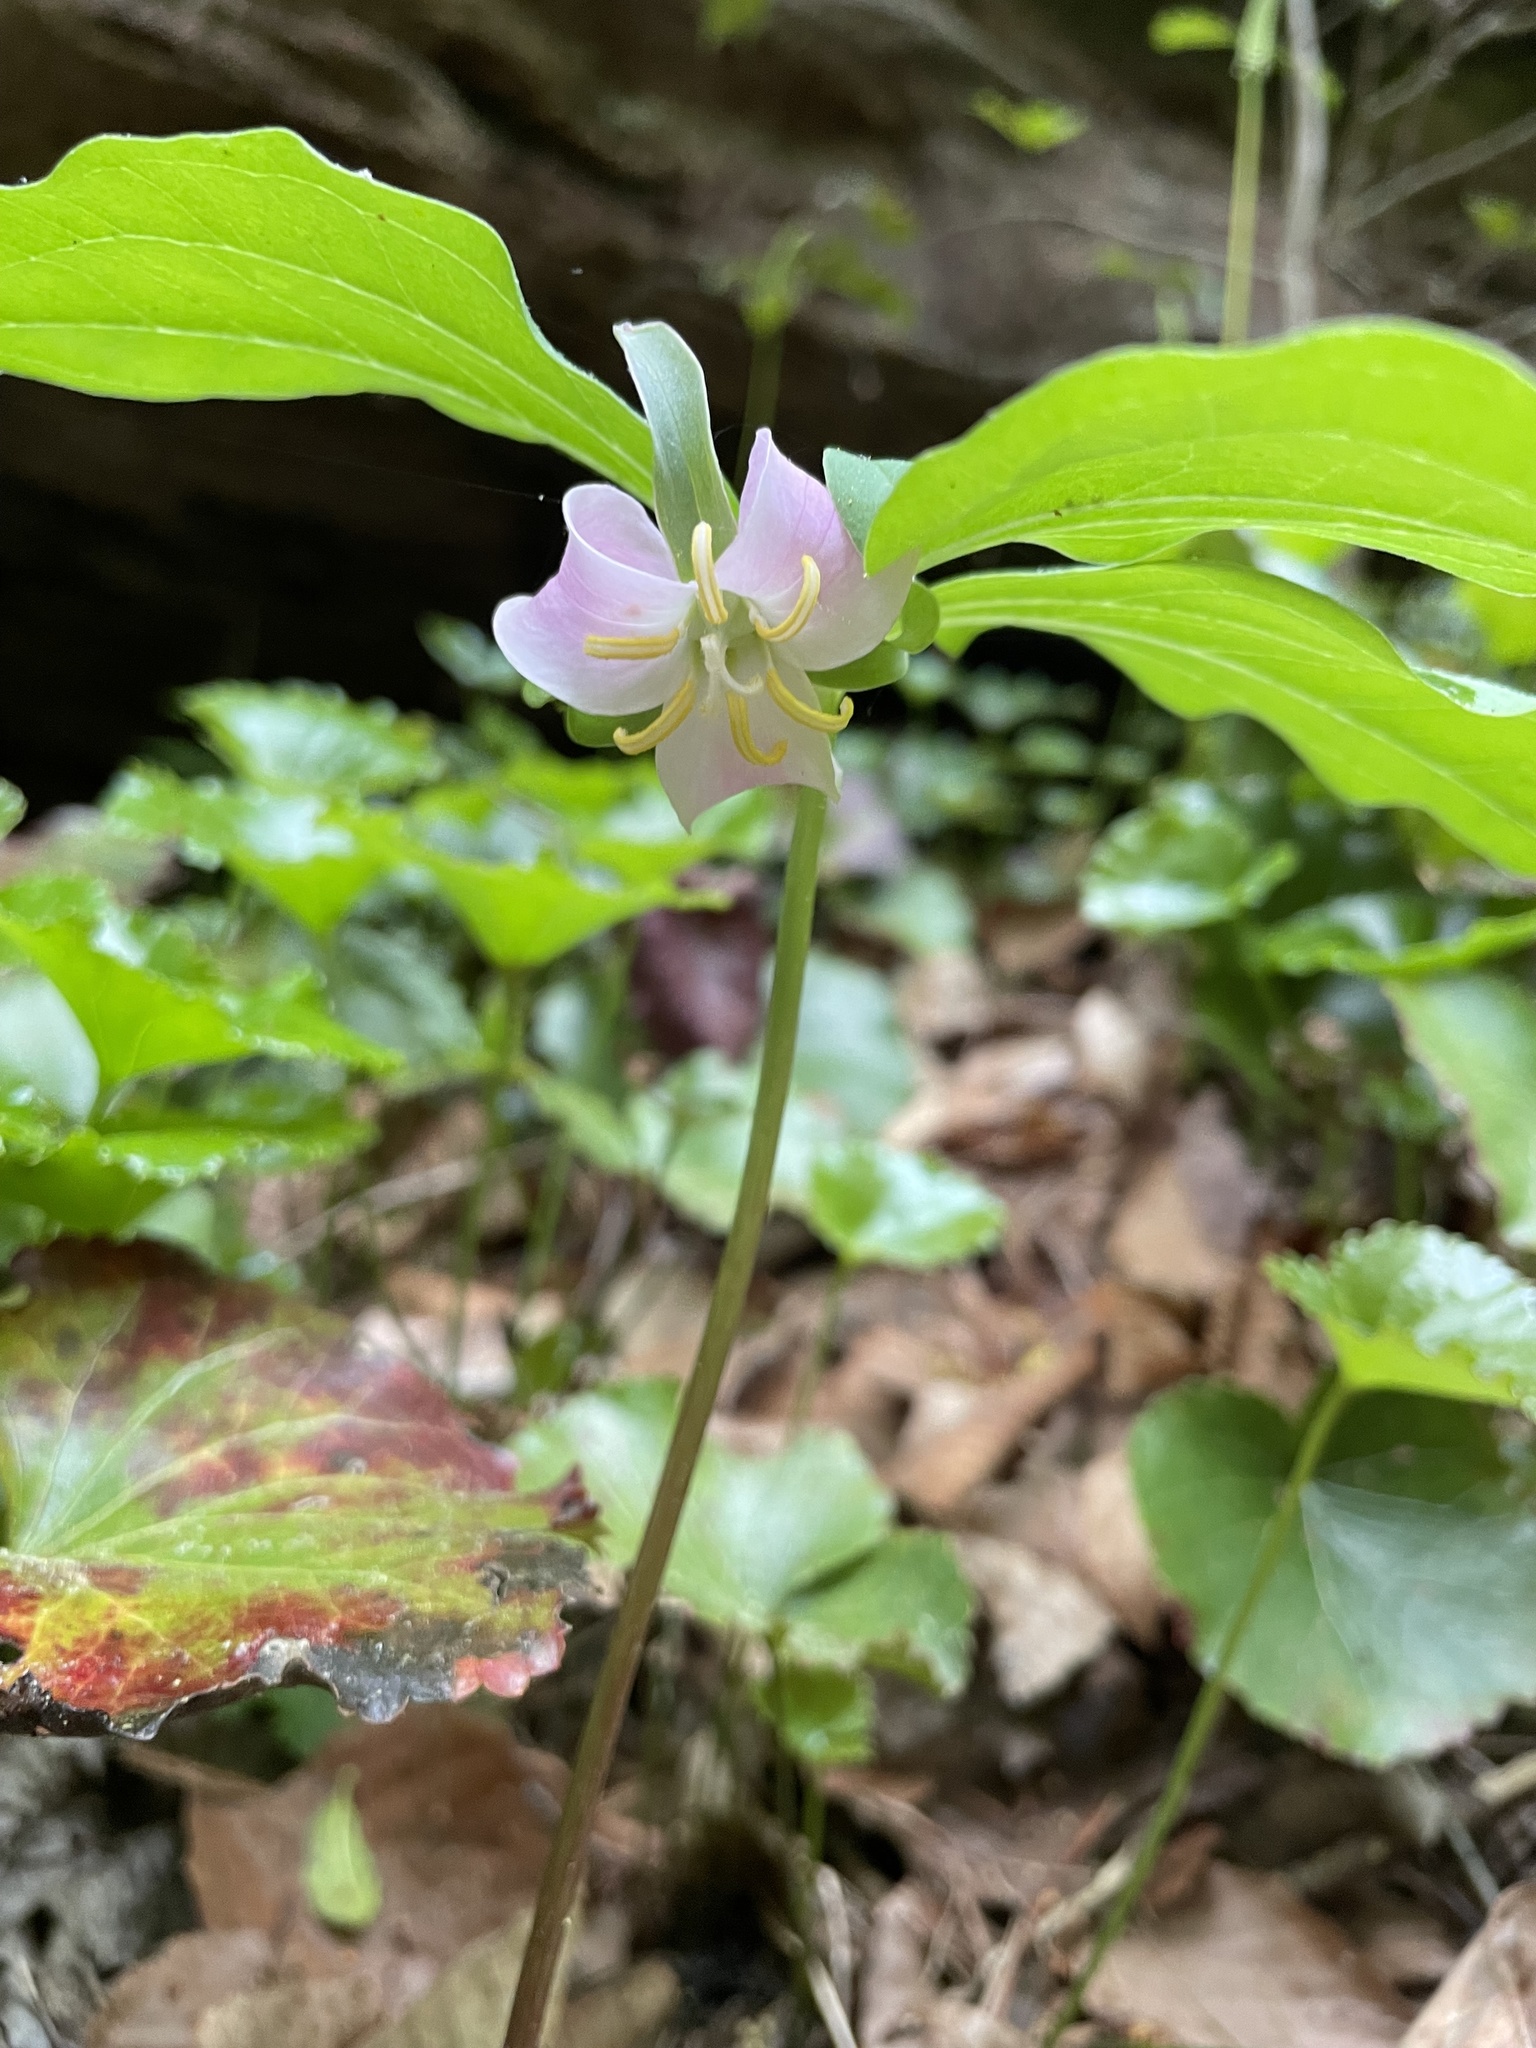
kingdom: Plantae
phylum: Tracheophyta
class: Liliopsida
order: Liliales
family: Melanthiaceae
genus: Trillium
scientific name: Trillium catesbaei
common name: Bashful trillium
